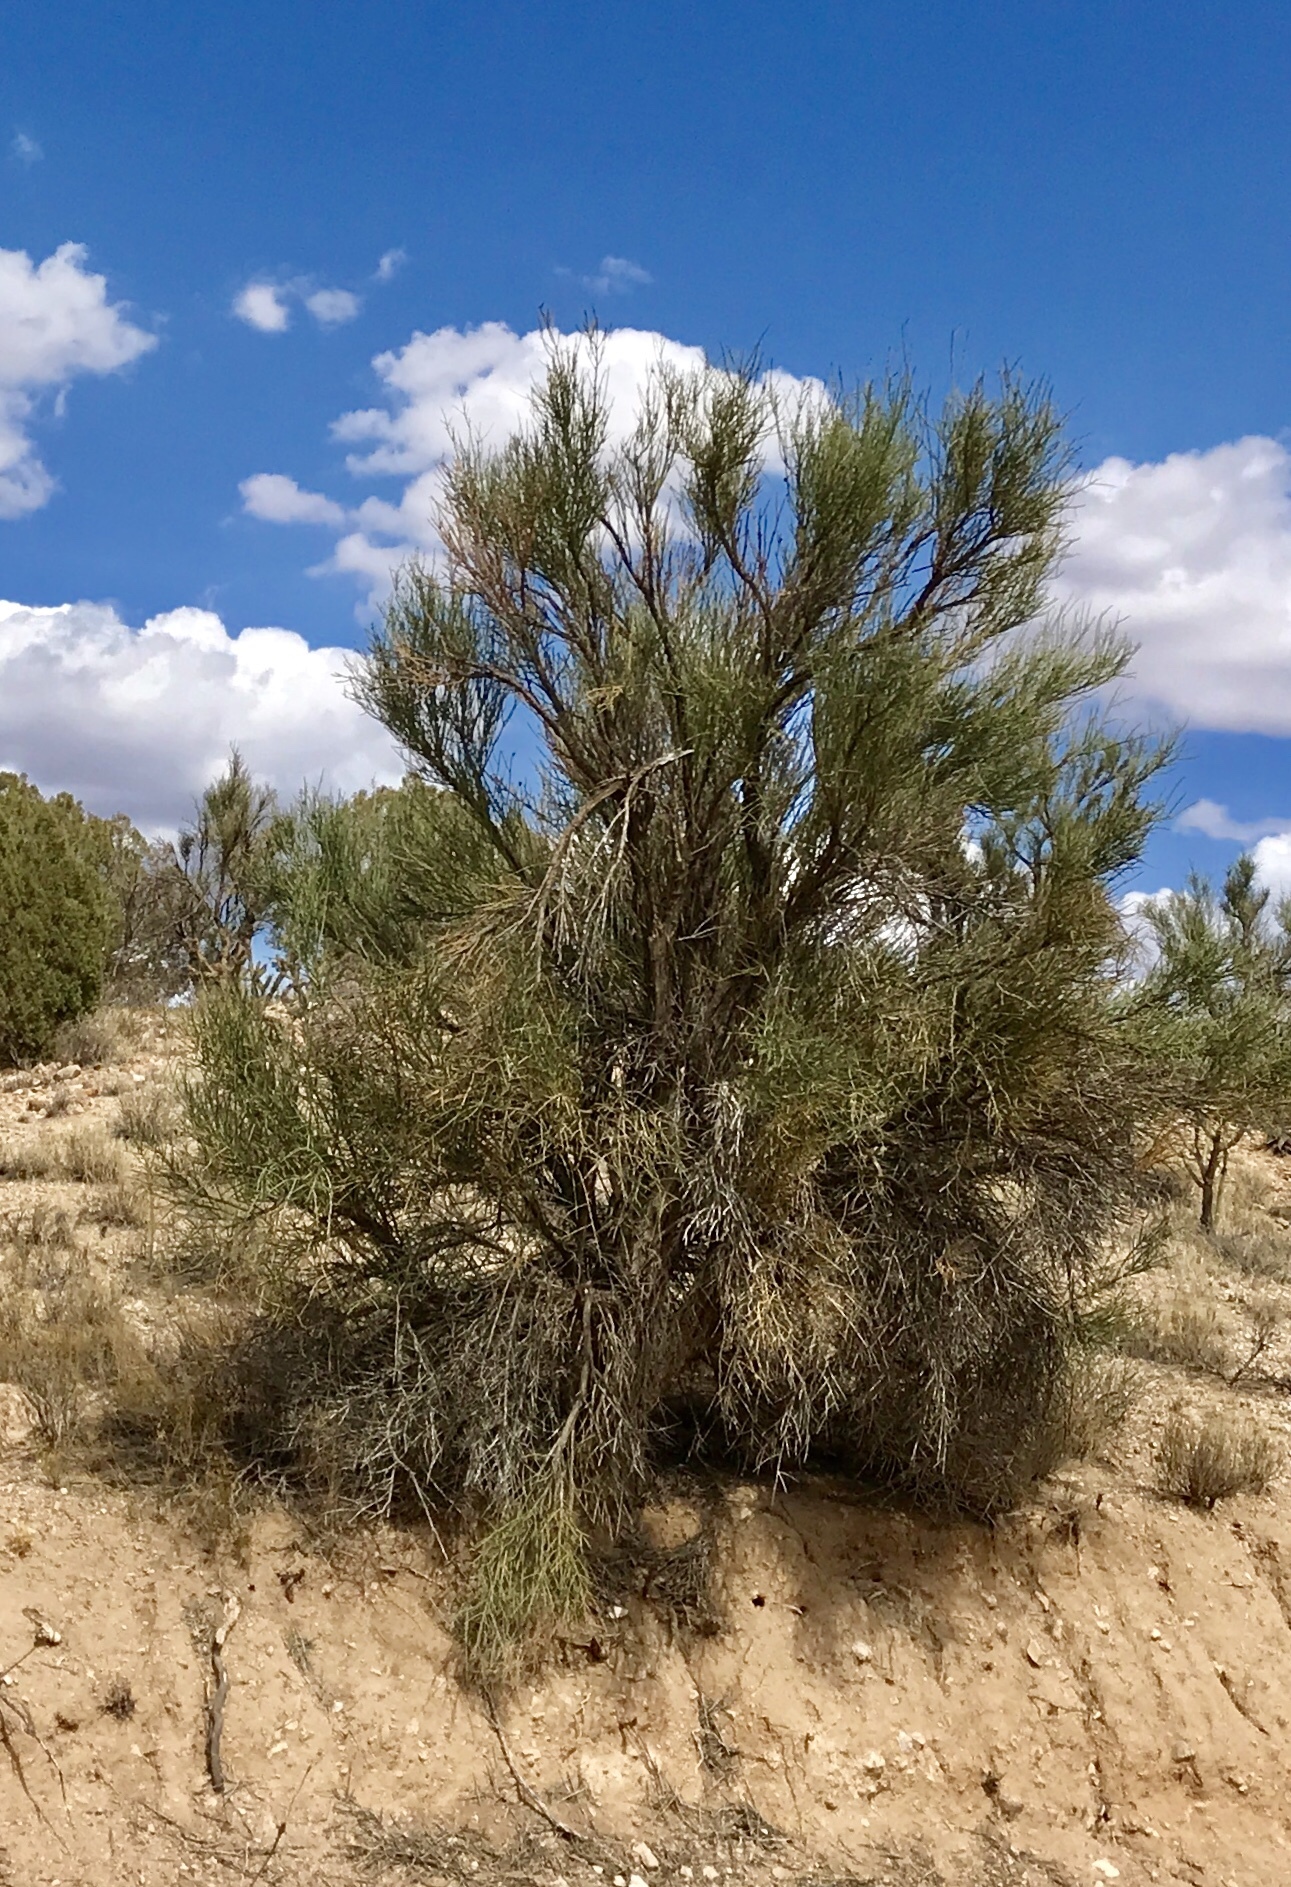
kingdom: Plantae
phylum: Tracheophyta
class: Magnoliopsida
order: Celastrales
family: Celastraceae
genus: Canotia
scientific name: Canotia holacantha
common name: Crucifixion thorns
